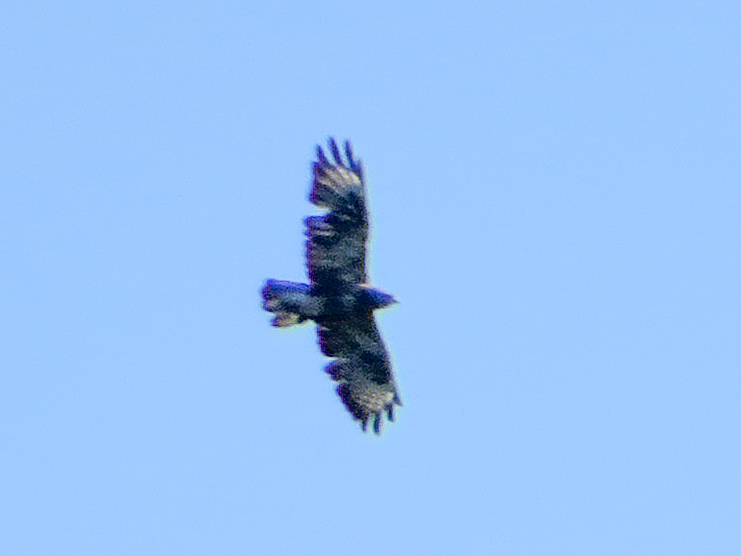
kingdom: Animalia
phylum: Chordata
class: Aves
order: Accipitriformes
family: Accipitridae
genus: Buteo
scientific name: Buteo buteo
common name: Common buzzard
